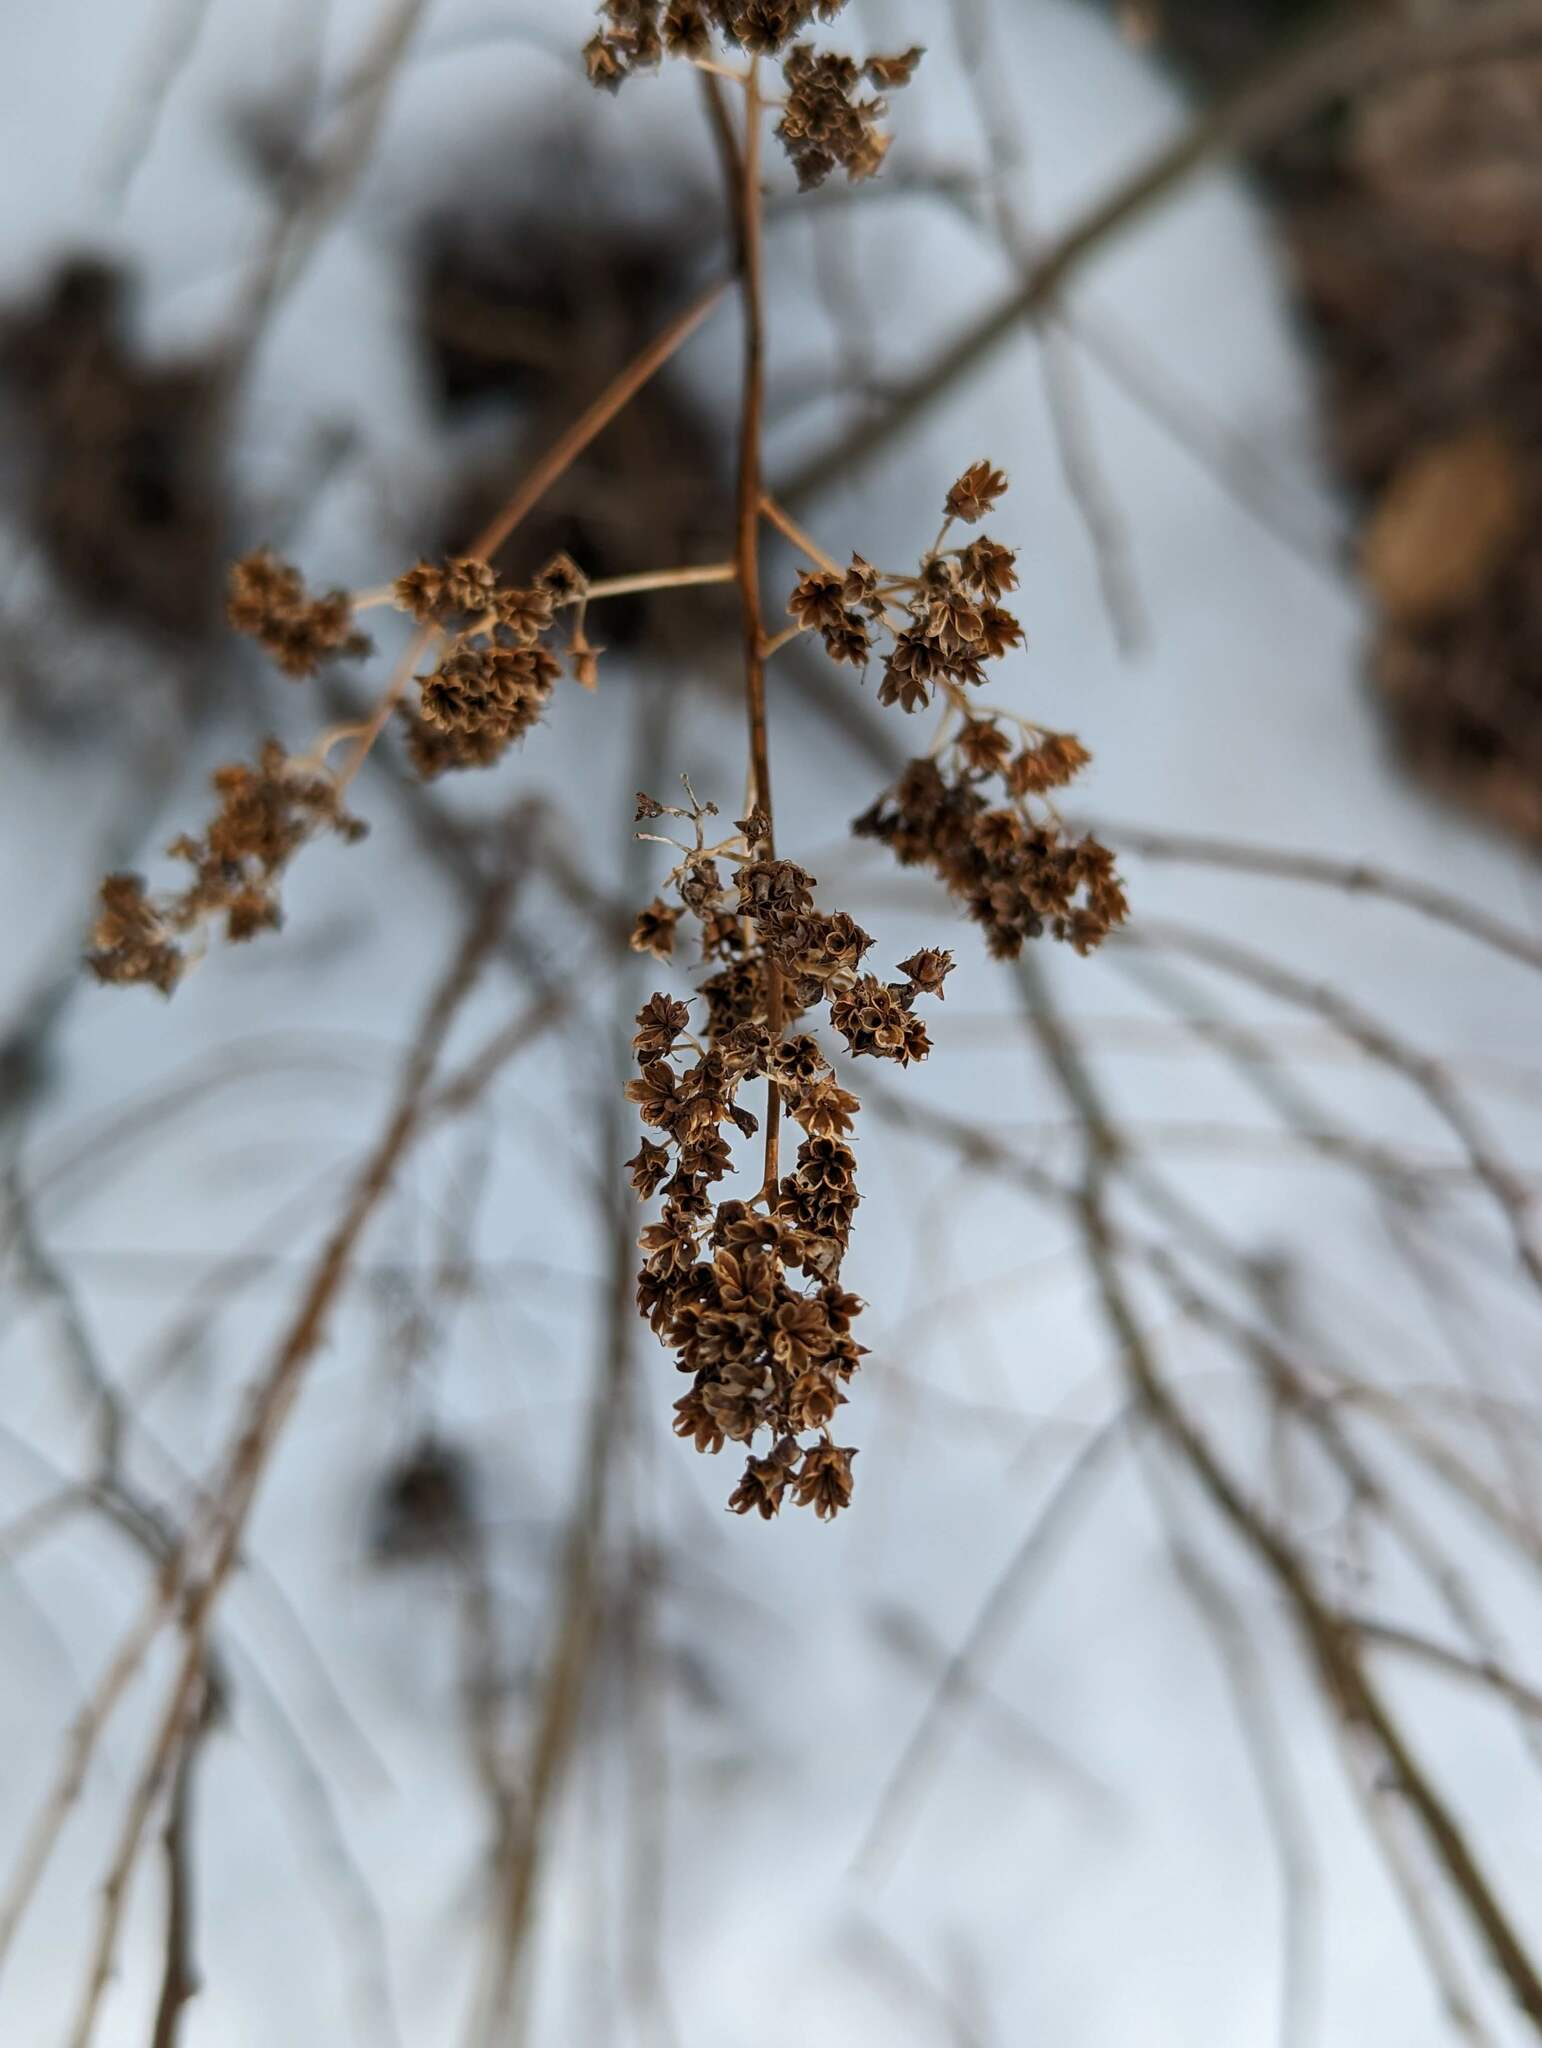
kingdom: Plantae
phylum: Tracheophyta
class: Magnoliopsida
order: Rosales
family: Rosaceae
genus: Spiraea
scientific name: Spiraea alba
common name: Pale bridewort
